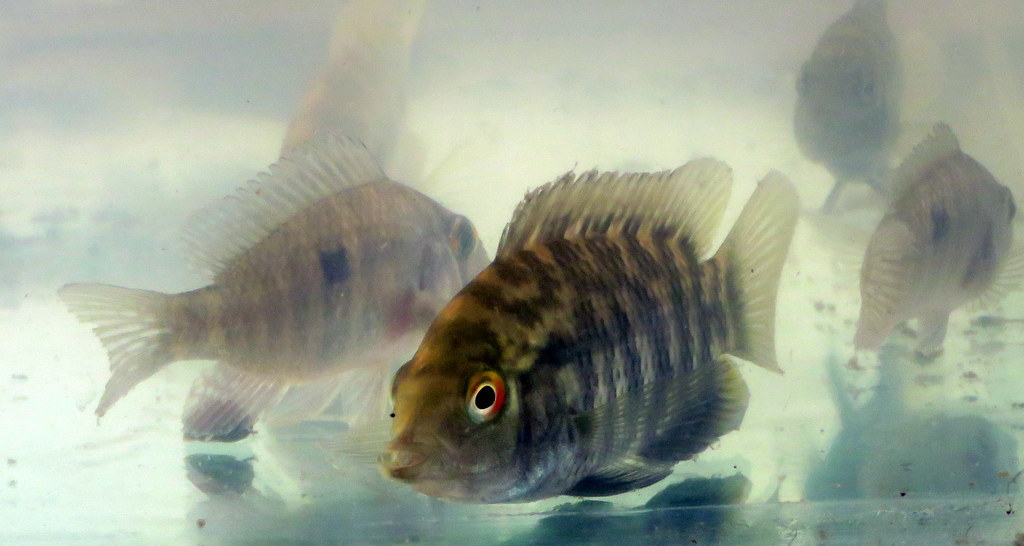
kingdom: Animalia
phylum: Chordata
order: Perciformes
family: Cichlidae
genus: Australoheros
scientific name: Australoheros facetus
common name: Chameleon cichlid
